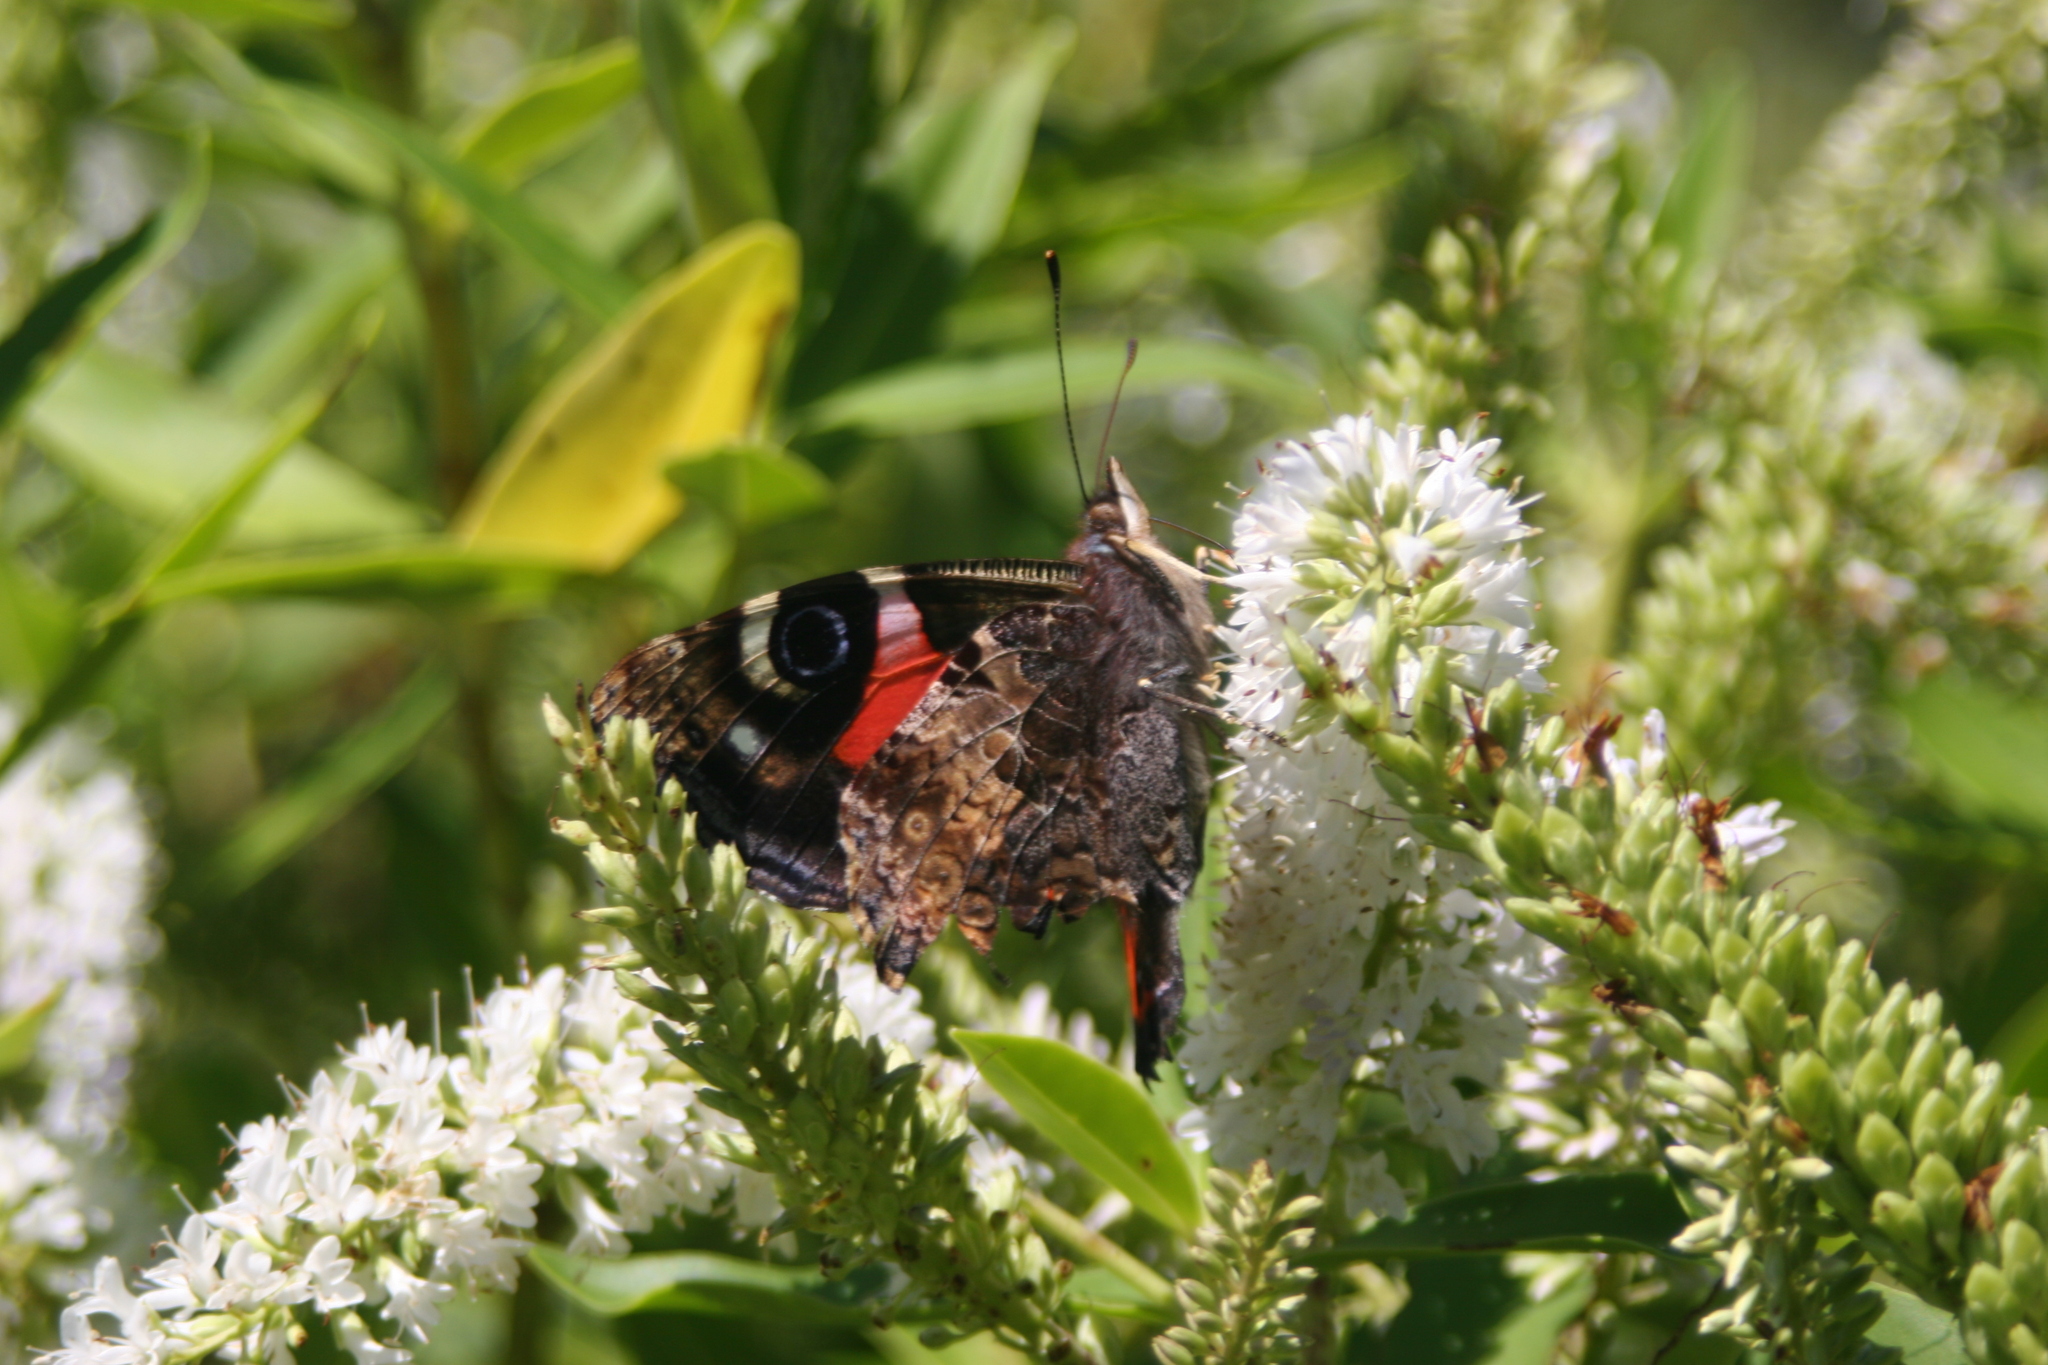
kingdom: Animalia
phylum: Arthropoda
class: Insecta
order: Lepidoptera
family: Nymphalidae
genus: Vanessa
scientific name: Vanessa gonerilla
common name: New zealand red admiral
